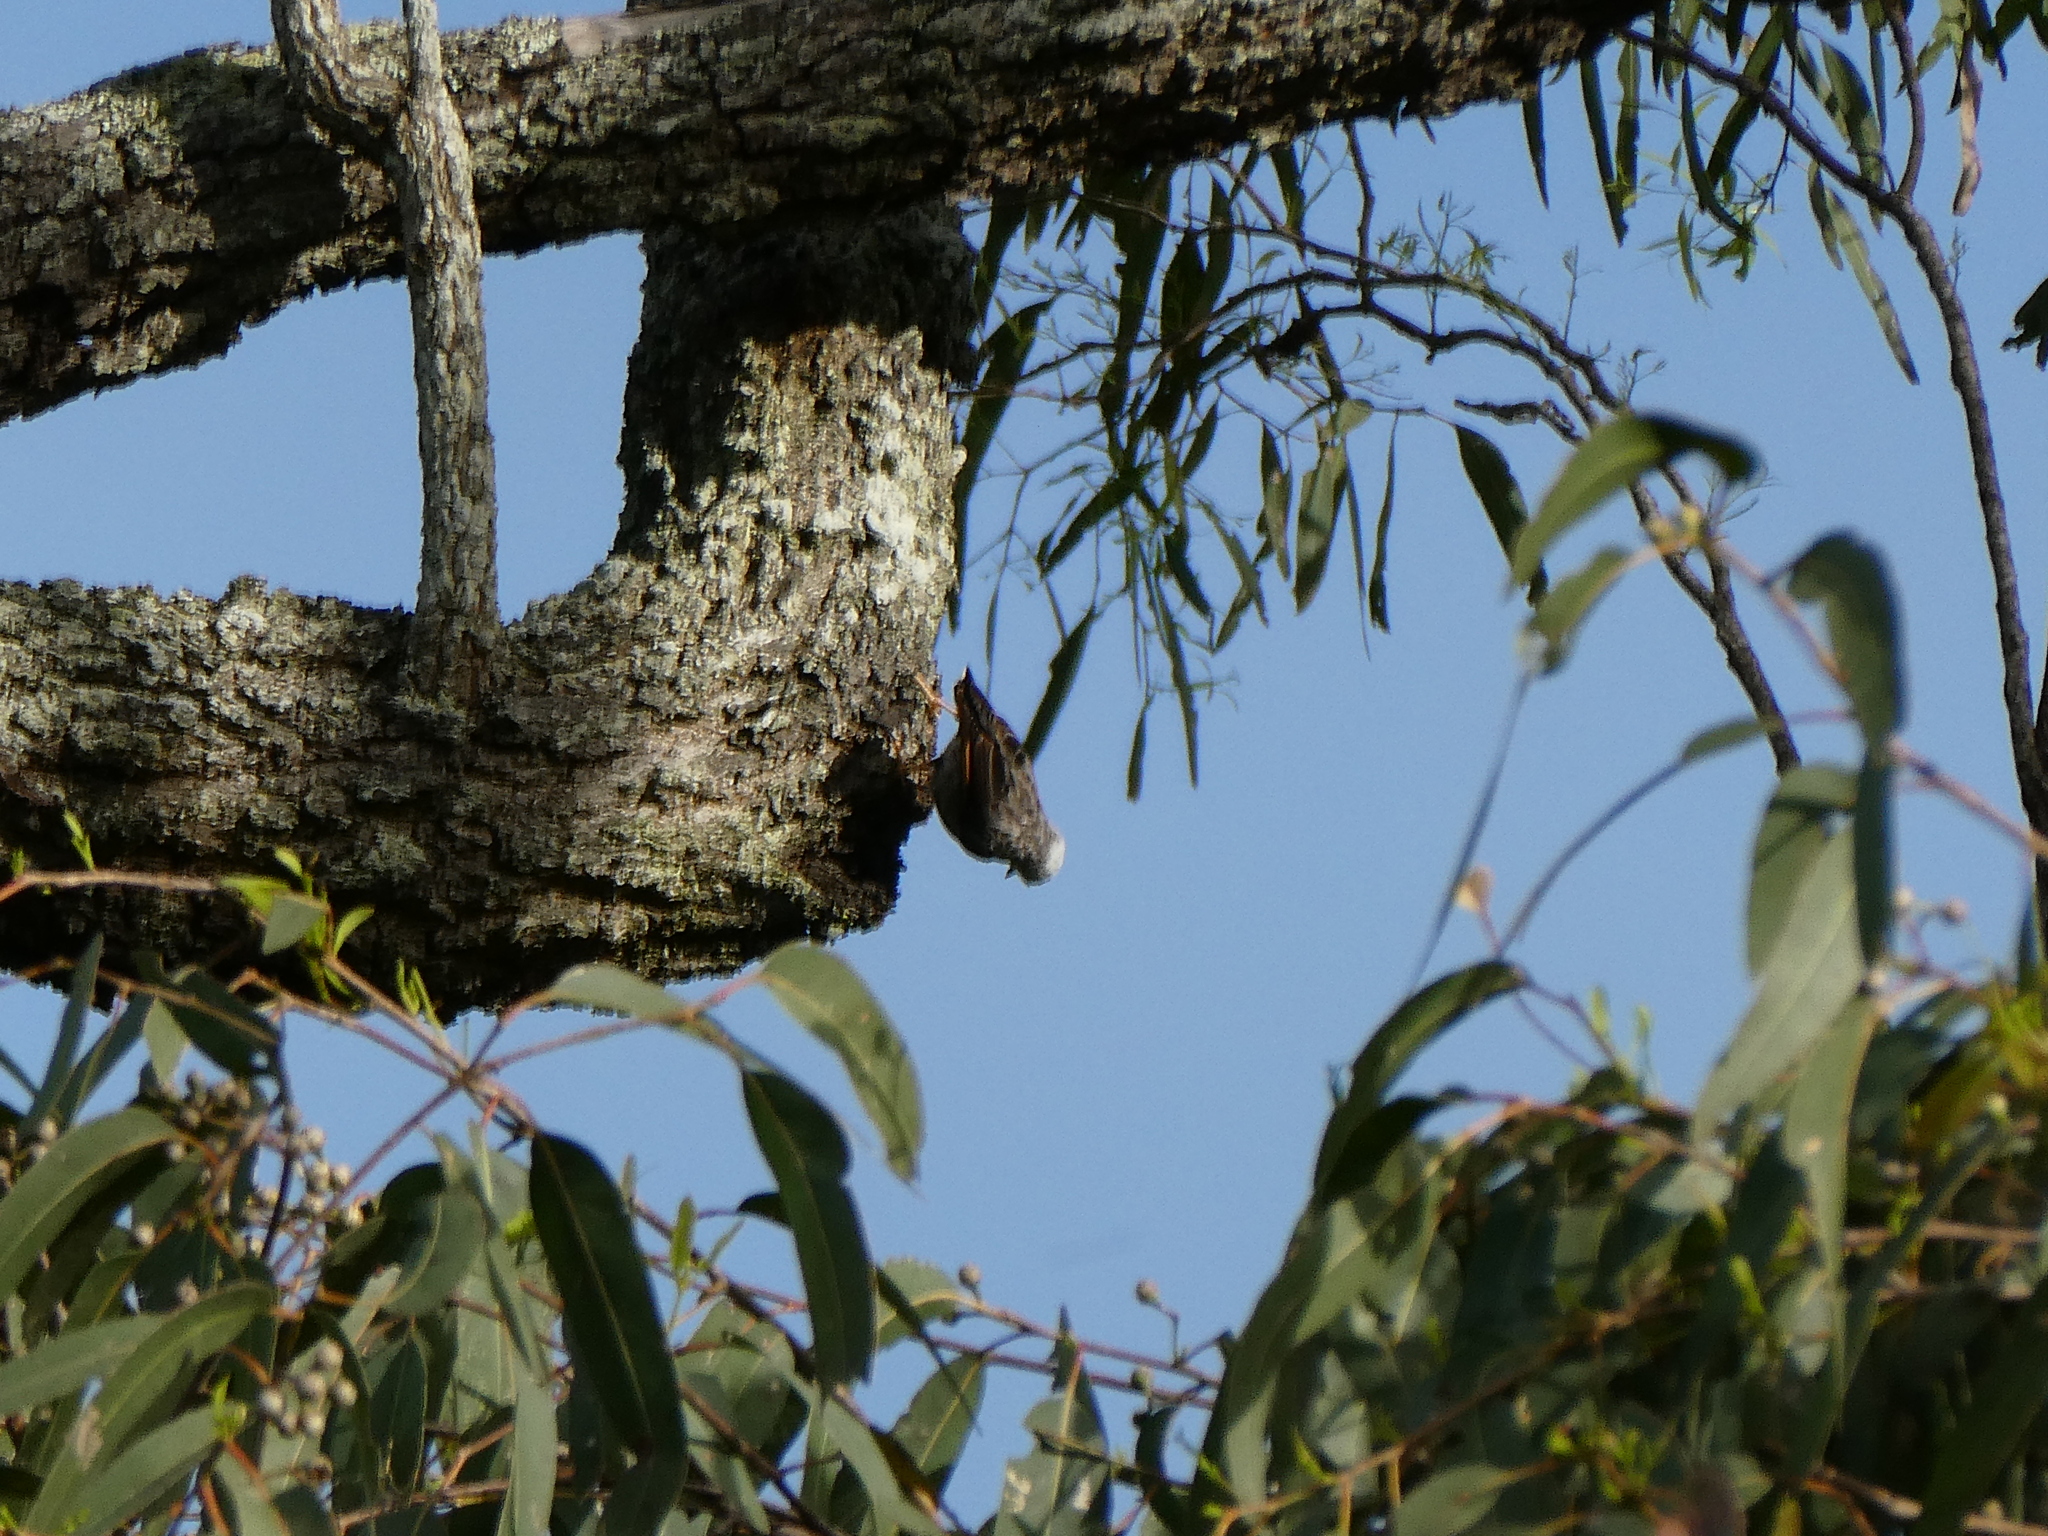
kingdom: Animalia
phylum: Chordata
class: Aves
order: Passeriformes
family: Neosittidae
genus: Daphoenositta
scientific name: Daphoenositta chrysoptera
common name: Varied sittella
